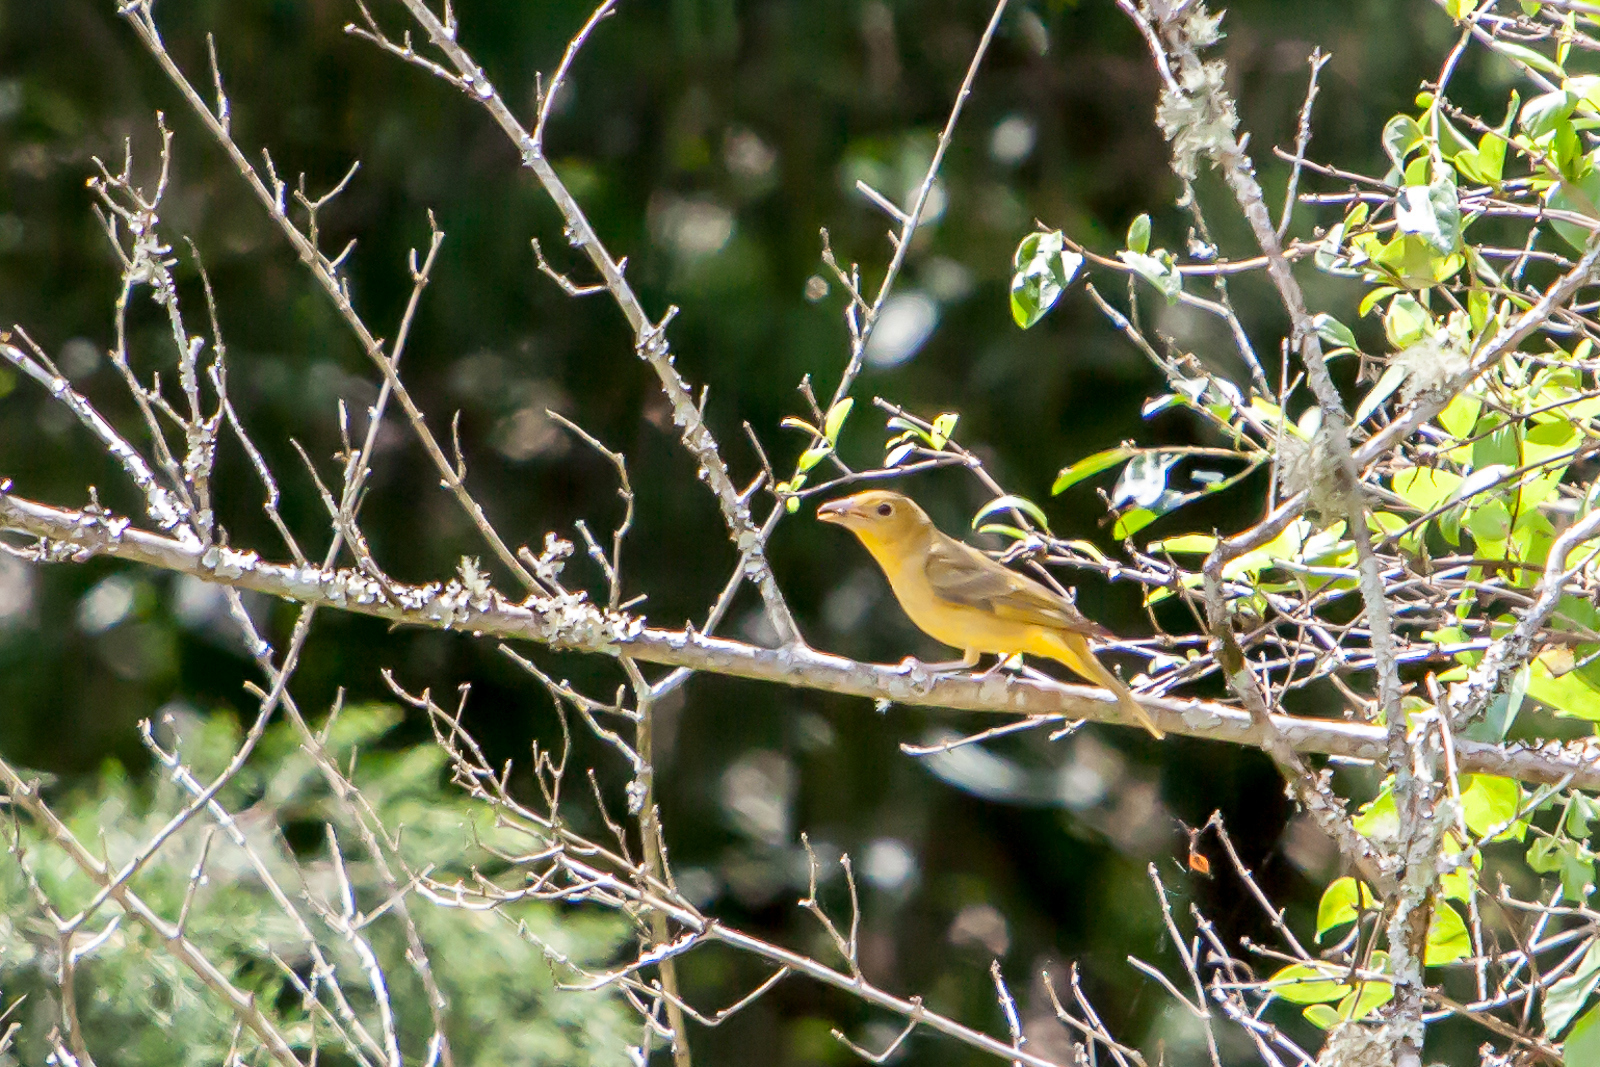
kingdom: Animalia
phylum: Chordata
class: Aves
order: Passeriformes
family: Cardinalidae
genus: Piranga
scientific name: Piranga rubra
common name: Summer tanager
